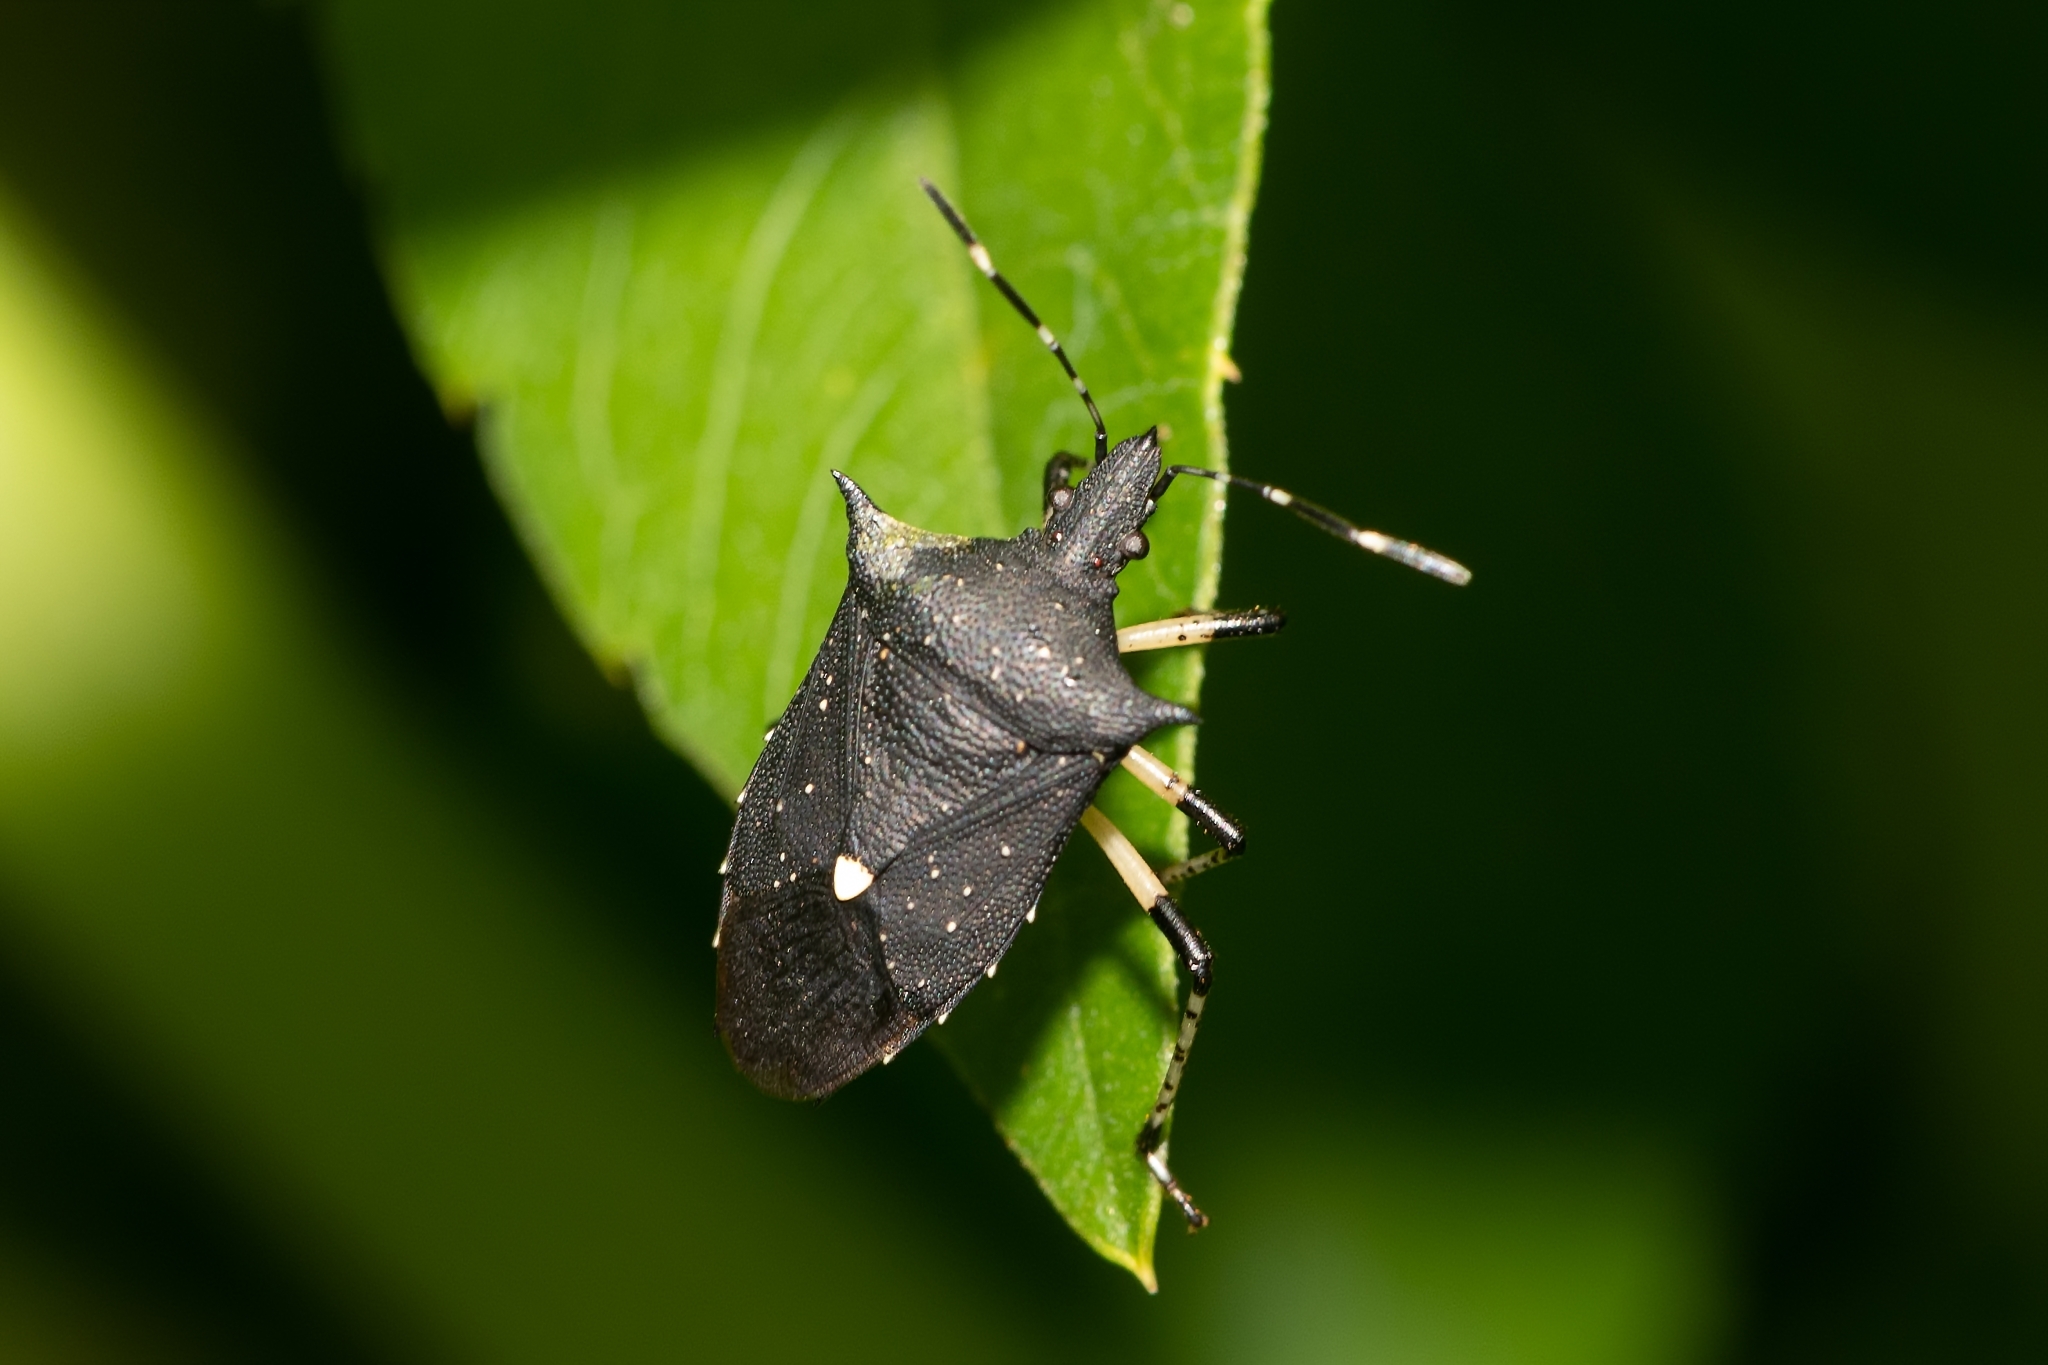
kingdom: Animalia
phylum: Arthropoda
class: Insecta
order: Hemiptera
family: Pentatomidae
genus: Proxys
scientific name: Proxys punctulatus
